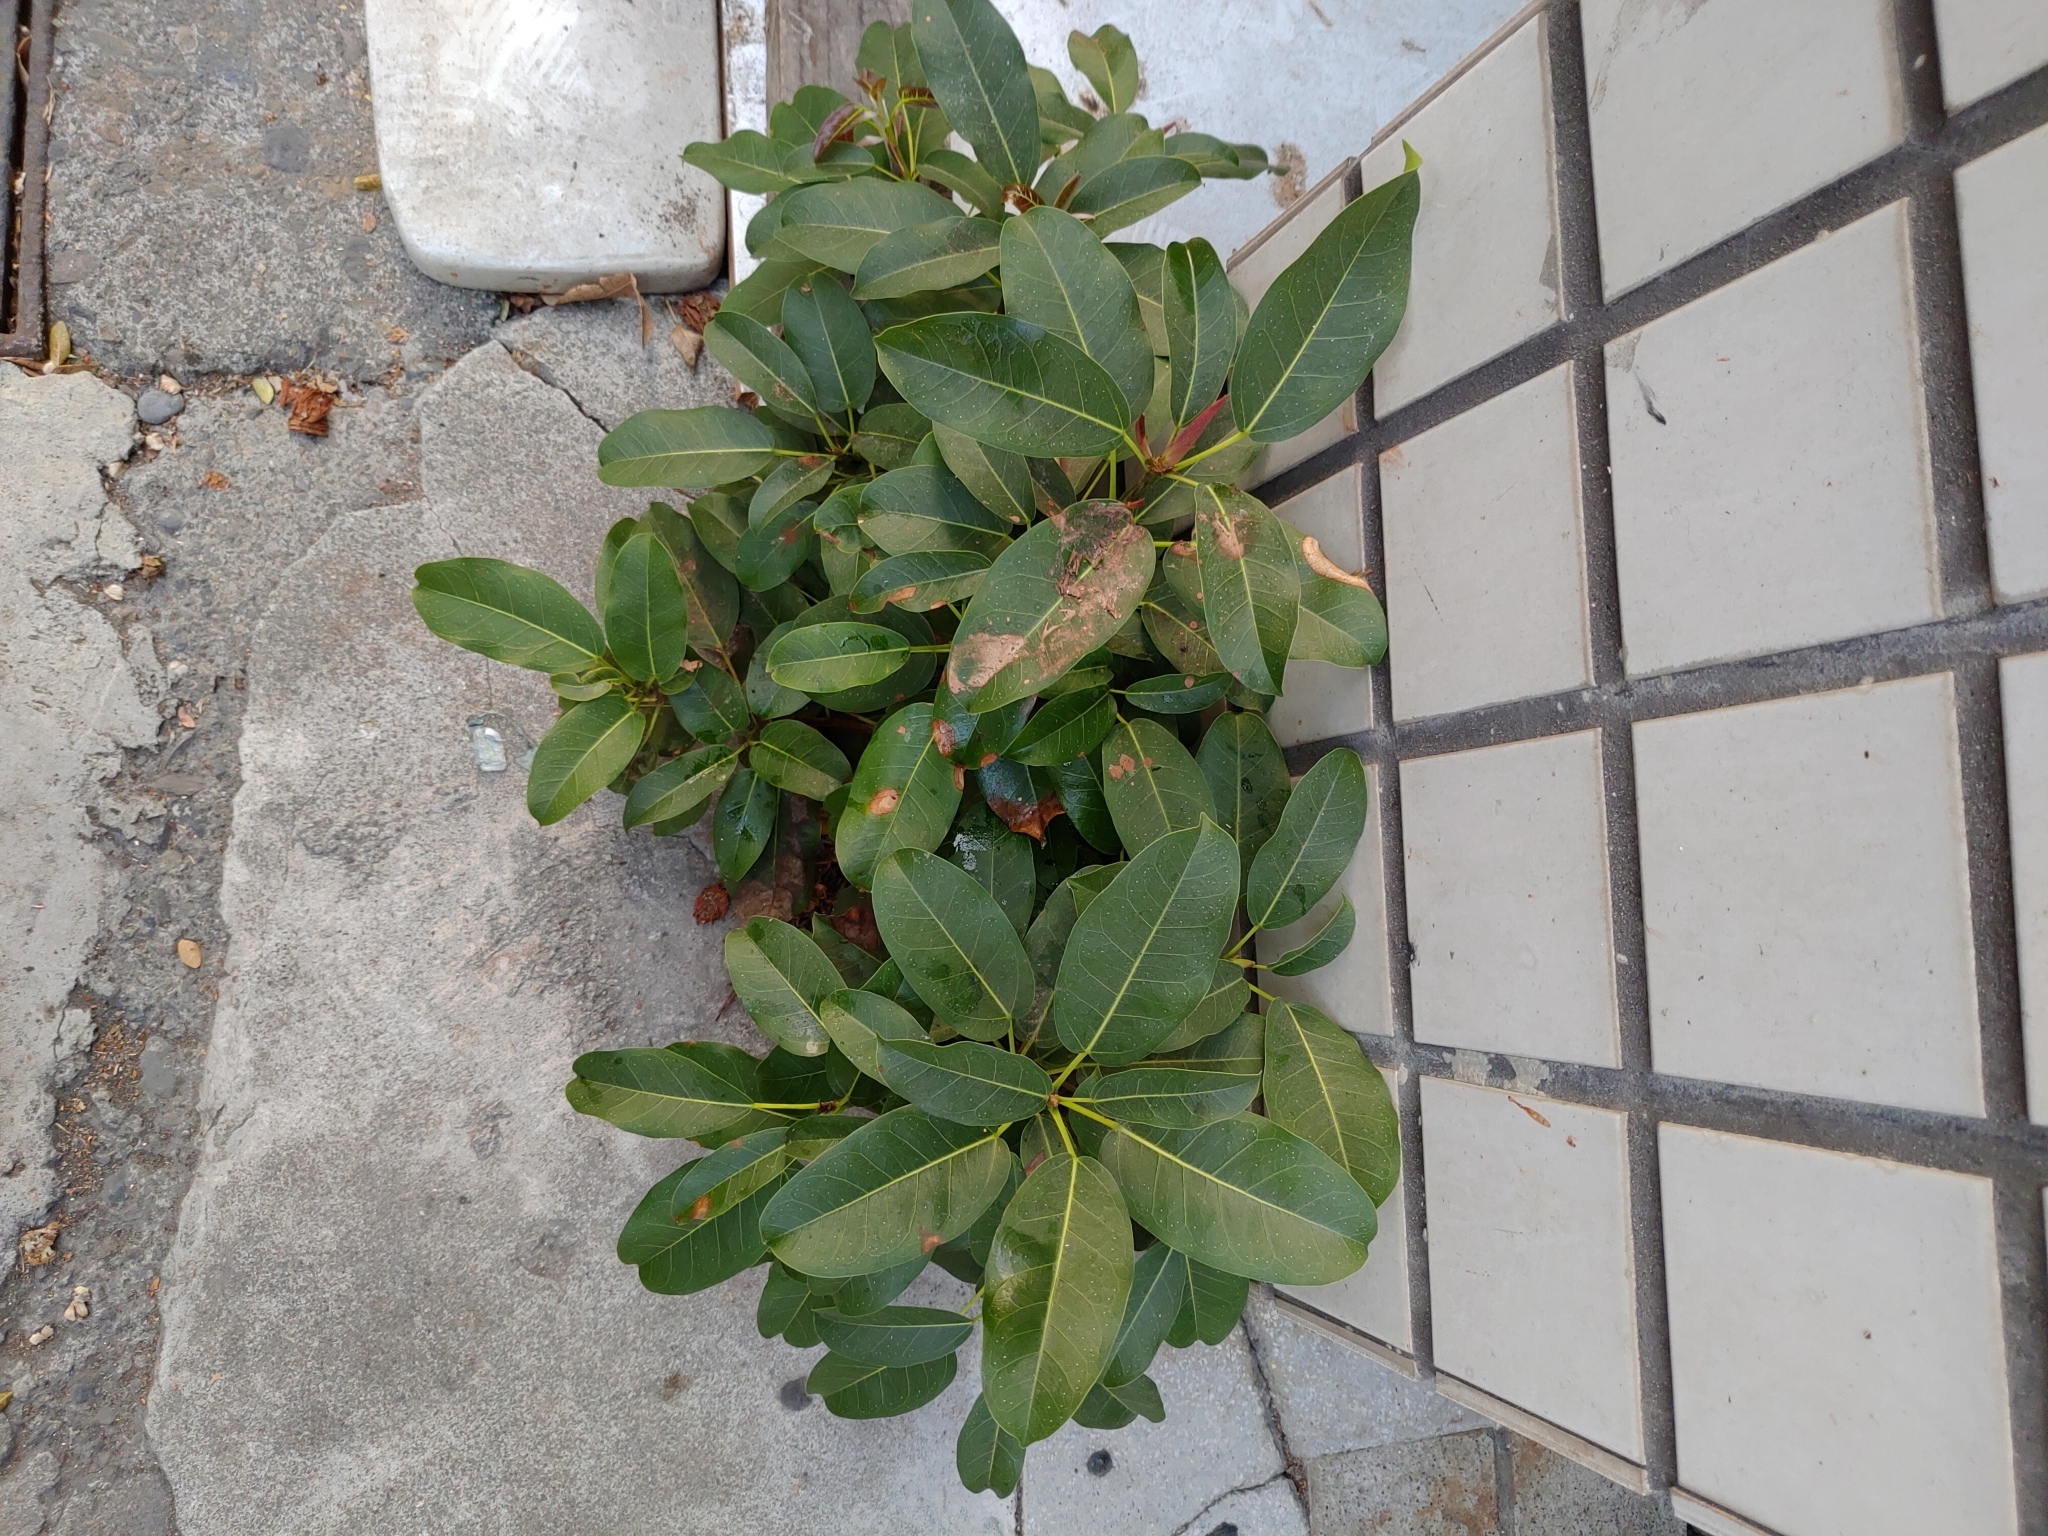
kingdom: Plantae
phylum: Tracheophyta
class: Magnoliopsida
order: Rosales
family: Moraceae
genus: Ficus
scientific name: Ficus subpisocarpa
